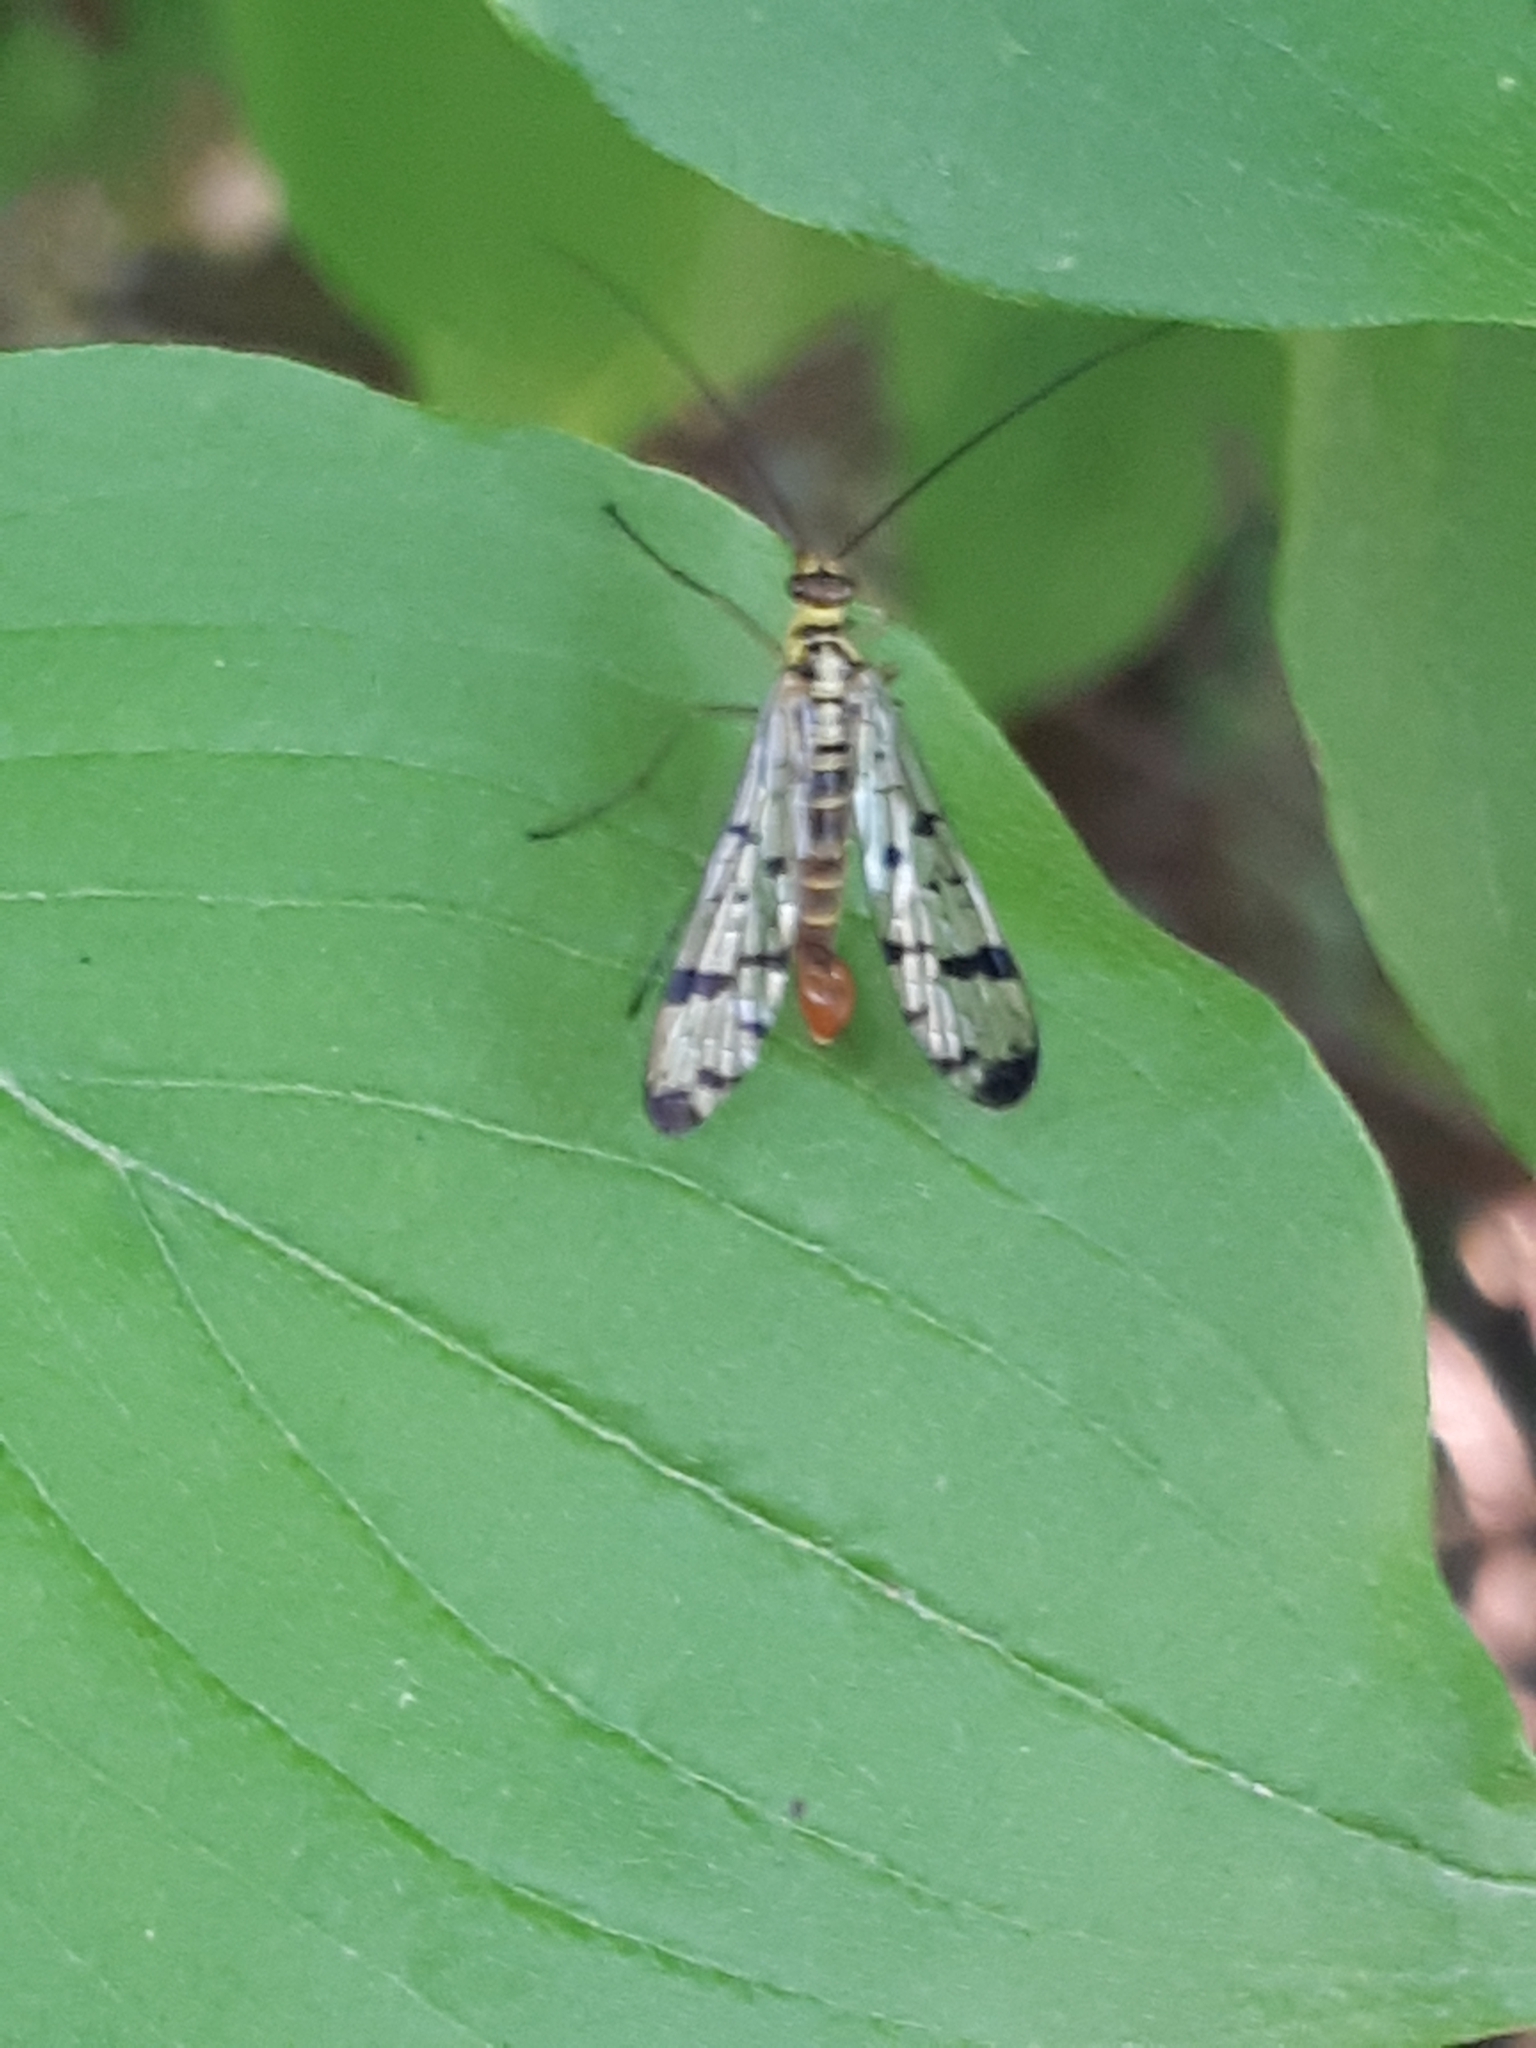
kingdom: Animalia
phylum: Arthropoda
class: Insecta
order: Mecoptera
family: Panorpidae
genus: Panorpa
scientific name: Panorpa germanica
